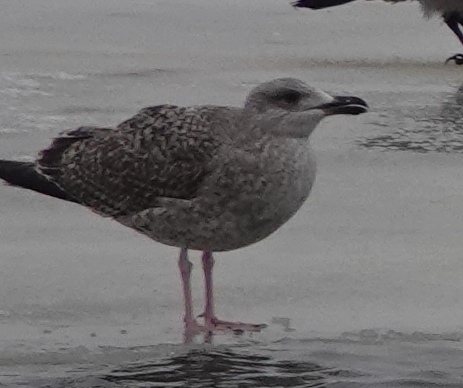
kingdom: Animalia
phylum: Chordata
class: Aves
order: Charadriiformes
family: Laridae
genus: Larus
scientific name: Larus argentatus
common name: Herring gull
